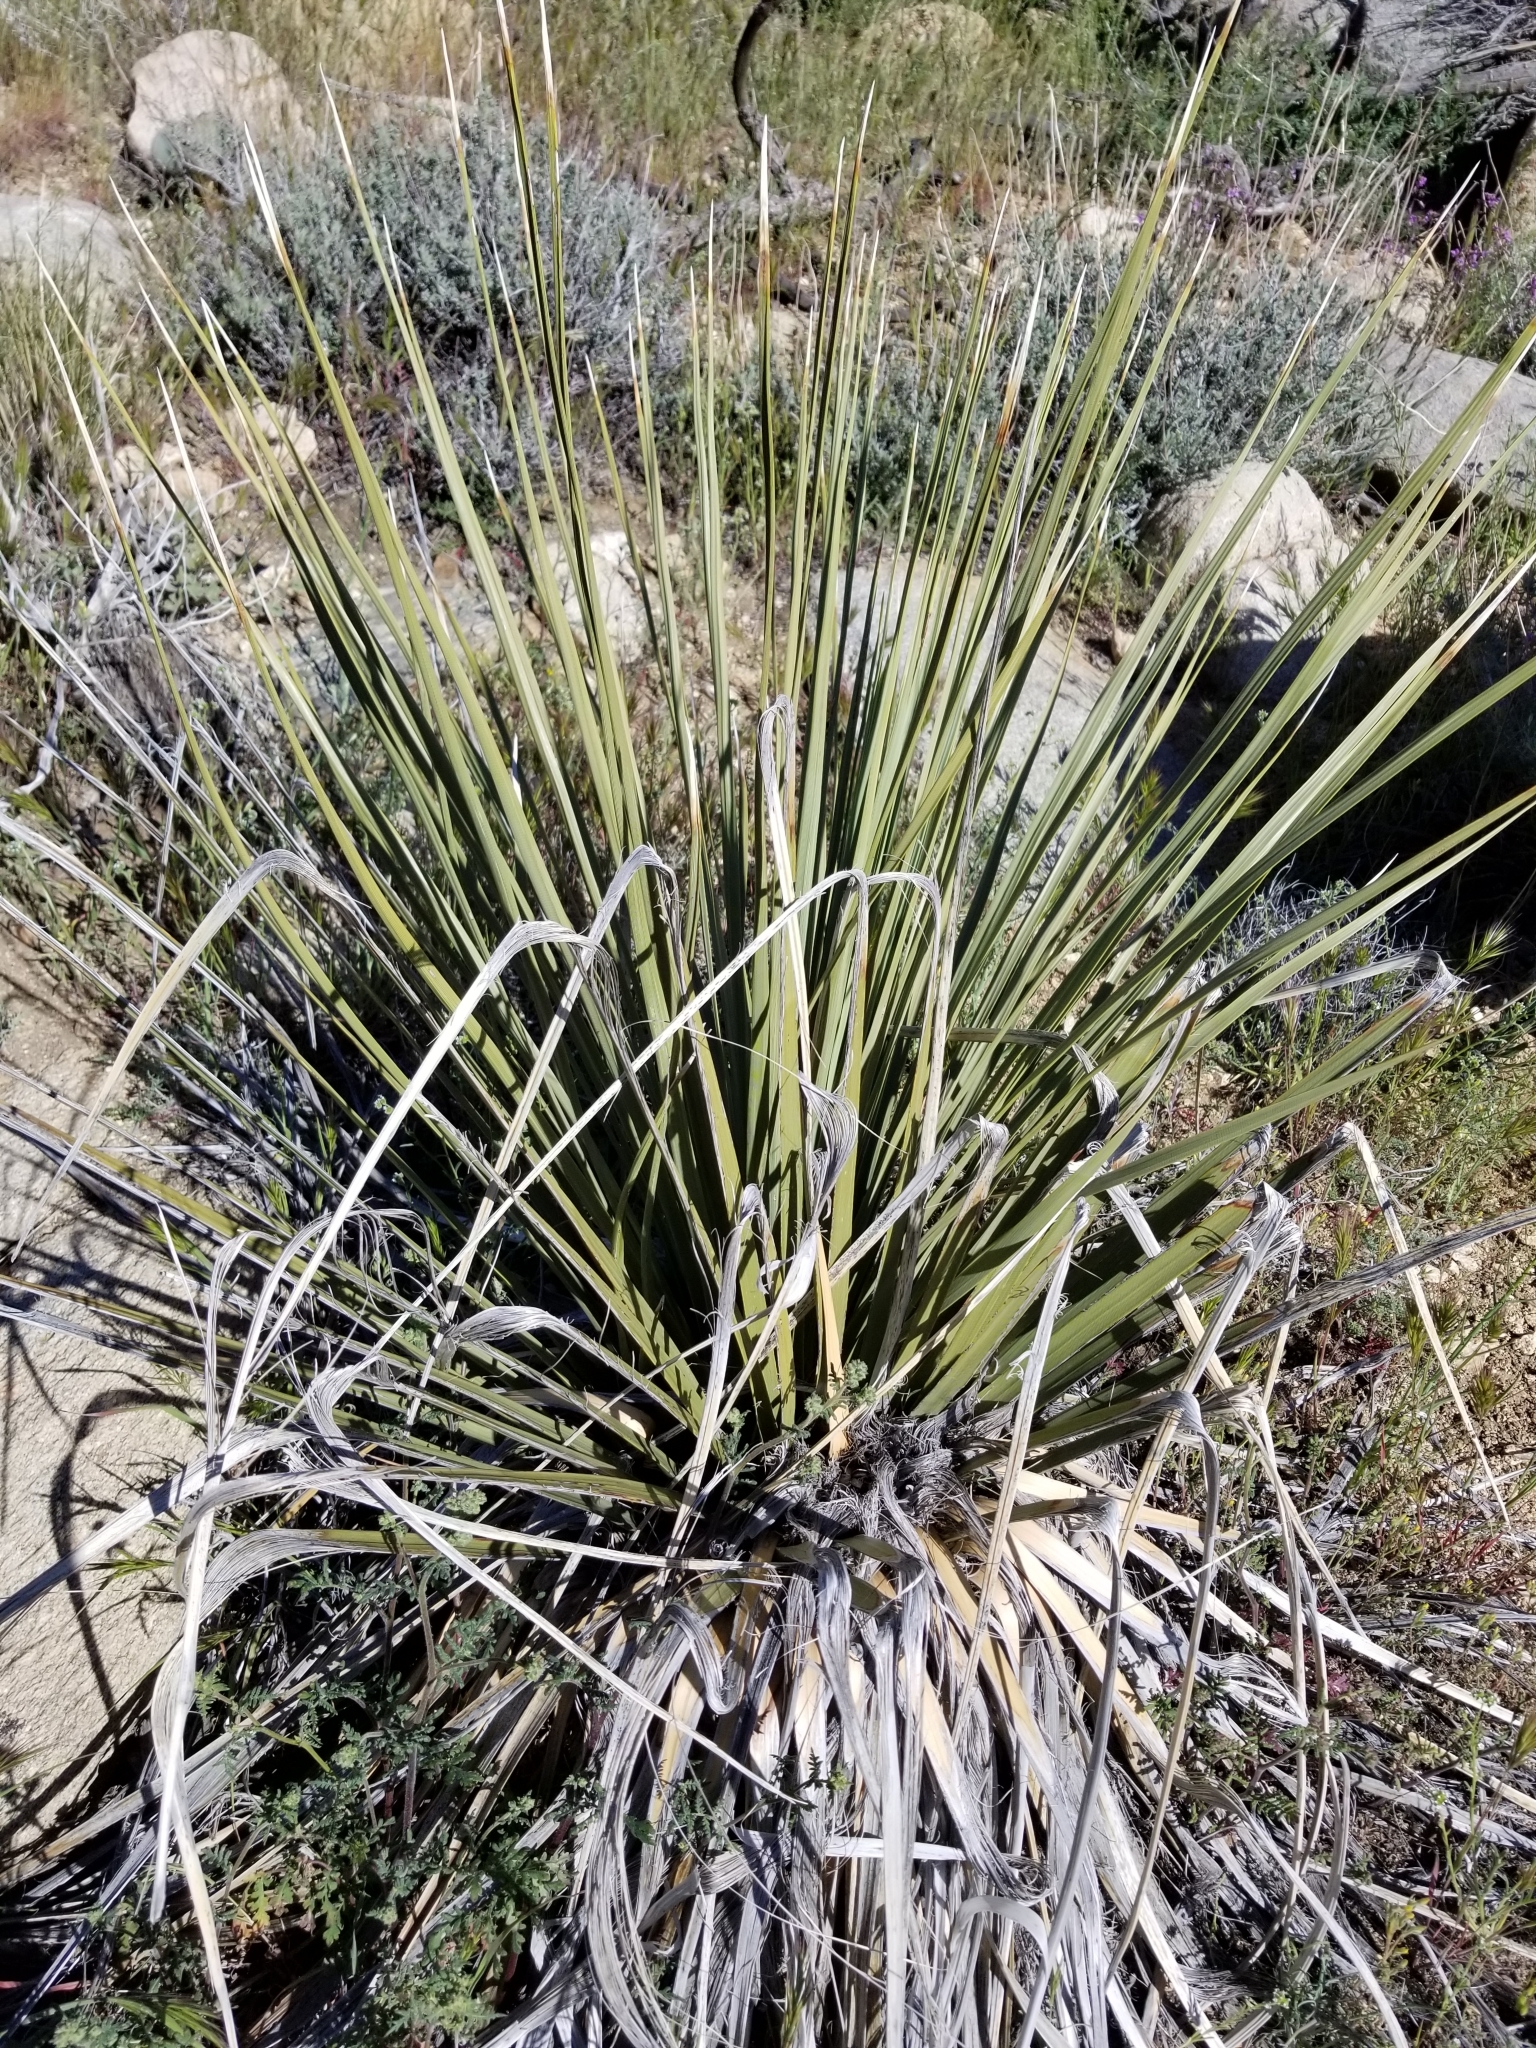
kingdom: Plantae
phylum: Tracheophyta
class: Liliopsida
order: Asparagales
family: Asparagaceae
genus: Nolina
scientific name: Nolina parryi
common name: Parry nolina
